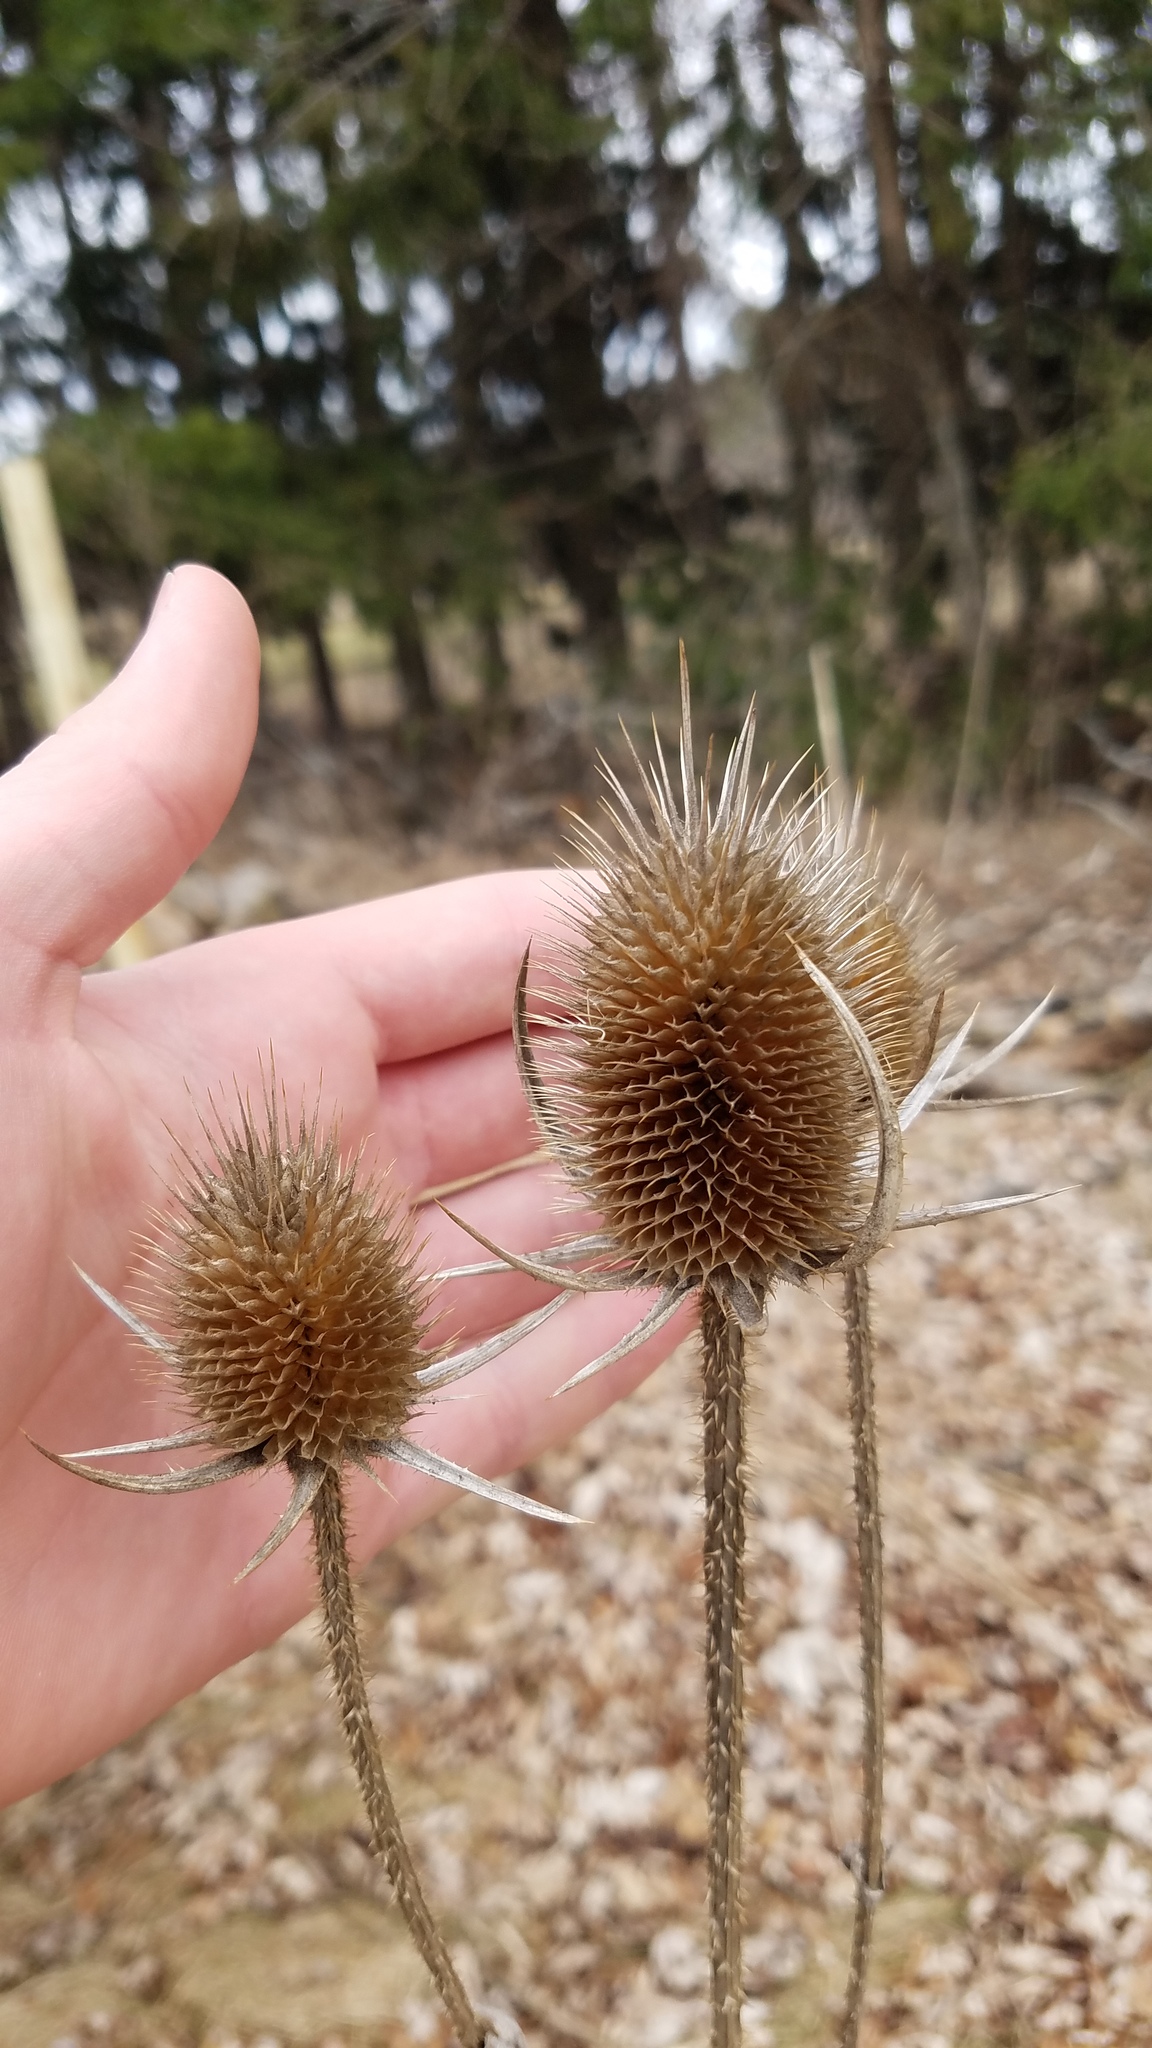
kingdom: Plantae
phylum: Tracheophyta
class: Magnoliopsida
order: Dipsacales
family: Caprifoliaceae
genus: Dipsacus
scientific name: Dipsacus laciniatus
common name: Cut-leaved teasel
